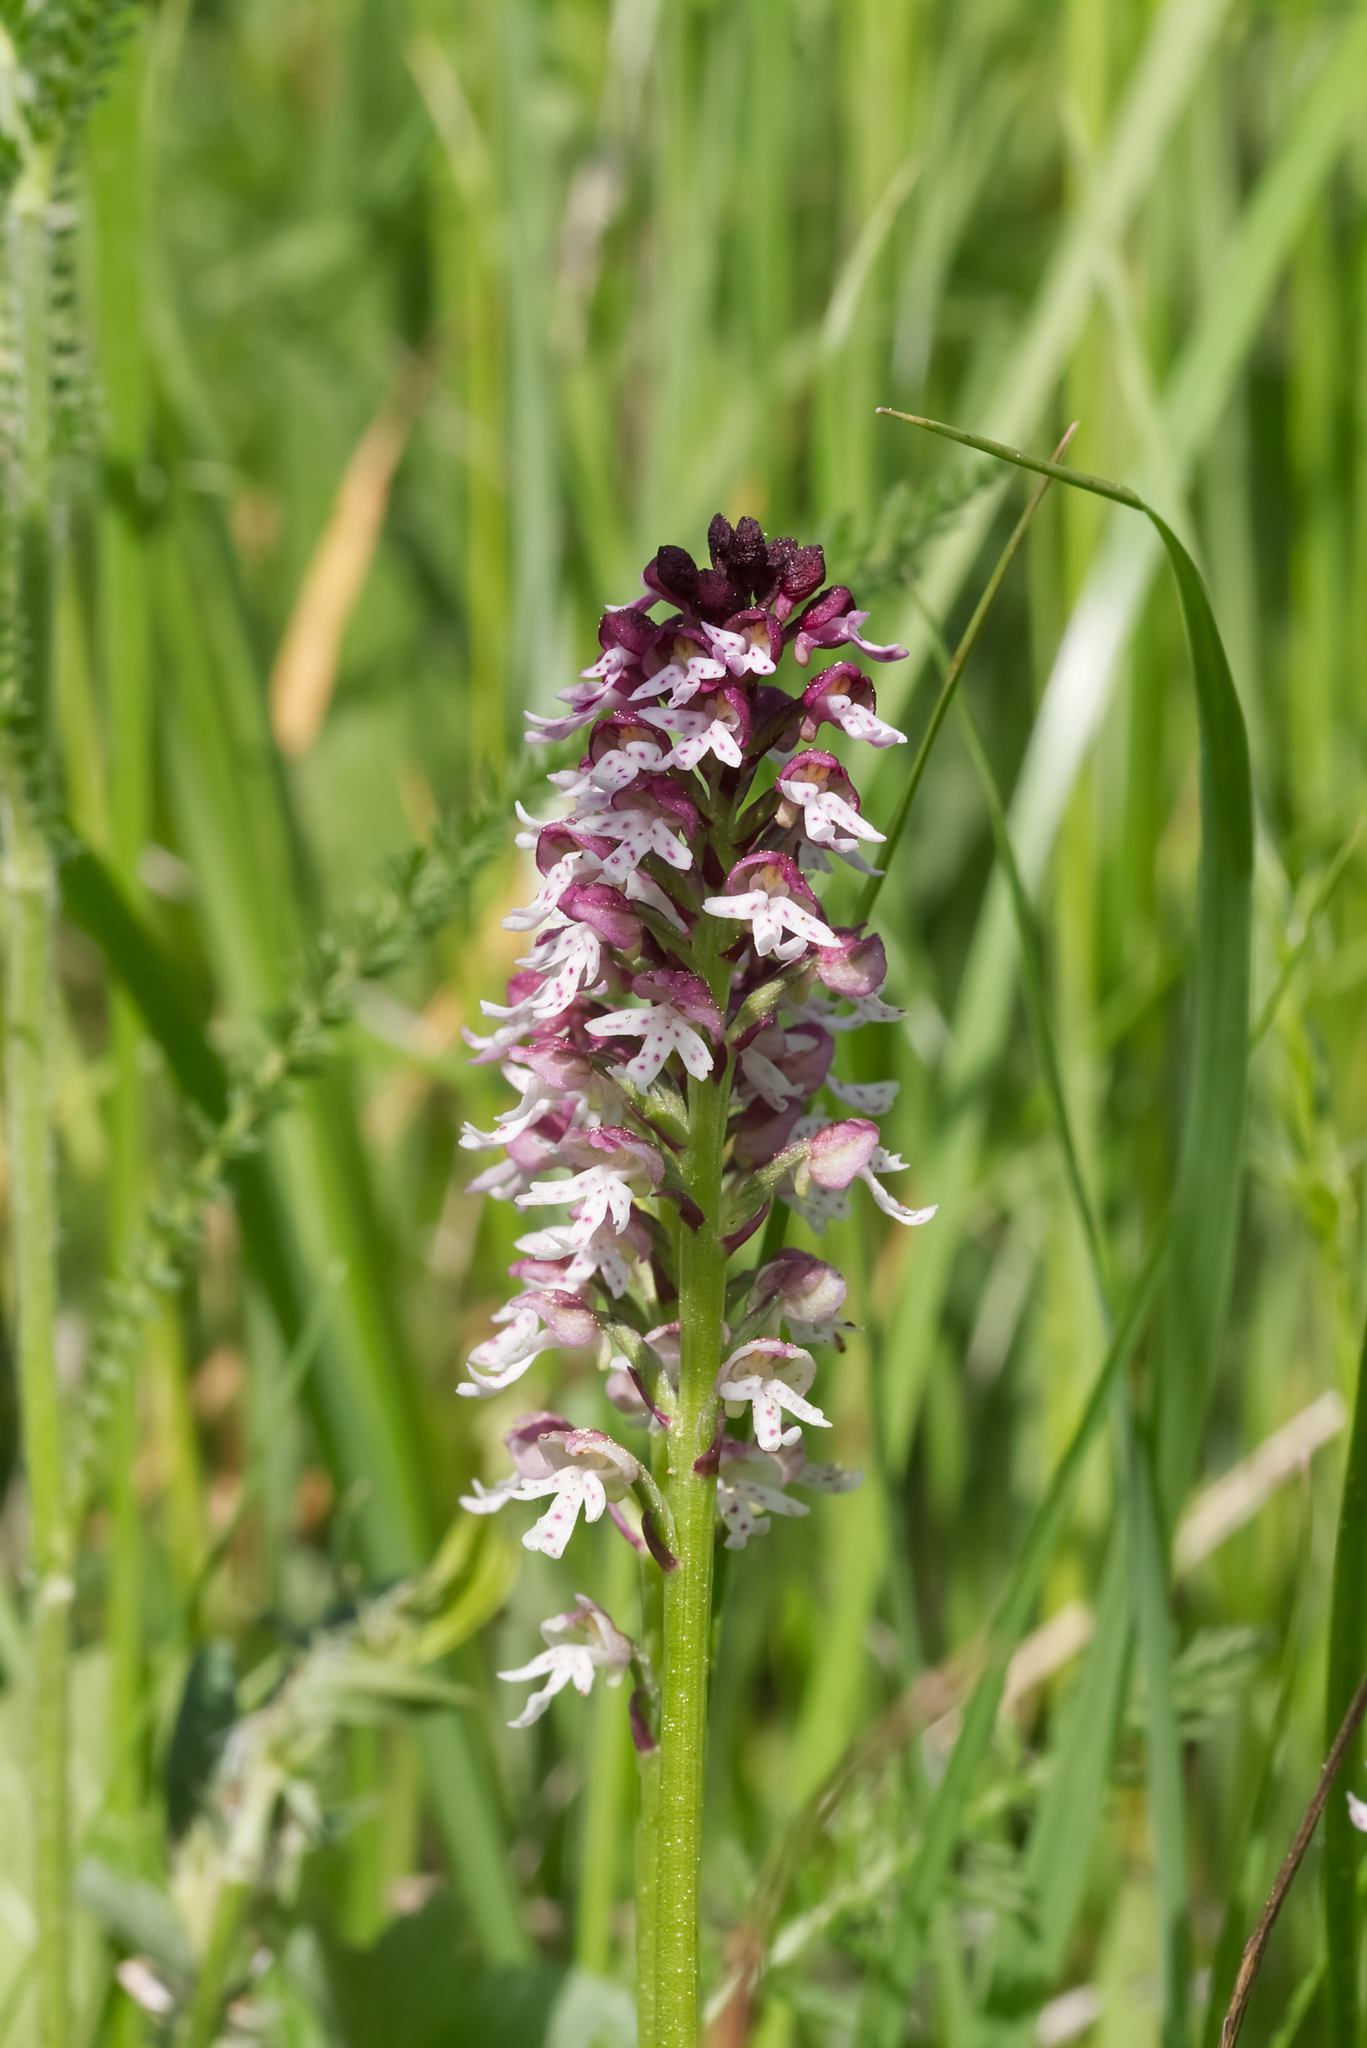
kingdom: Plantae
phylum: Tracheophyta
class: Liliopsida
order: Asparagales
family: Orchidaceae
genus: Neotinea
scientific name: Neotinea ustulata
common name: Burnt orchid
